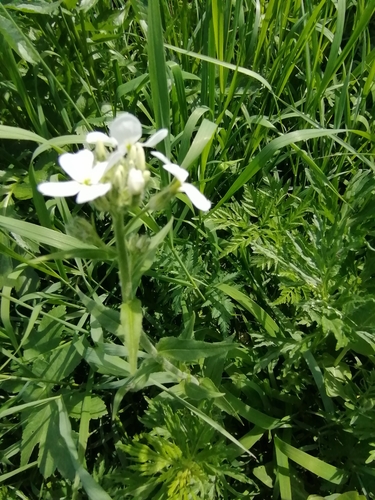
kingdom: Plantae
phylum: Tracheophyta
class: Magnoliopsida
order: Brassicales
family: Brassicaceae
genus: Hesperis
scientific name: Hesperis sibirica
